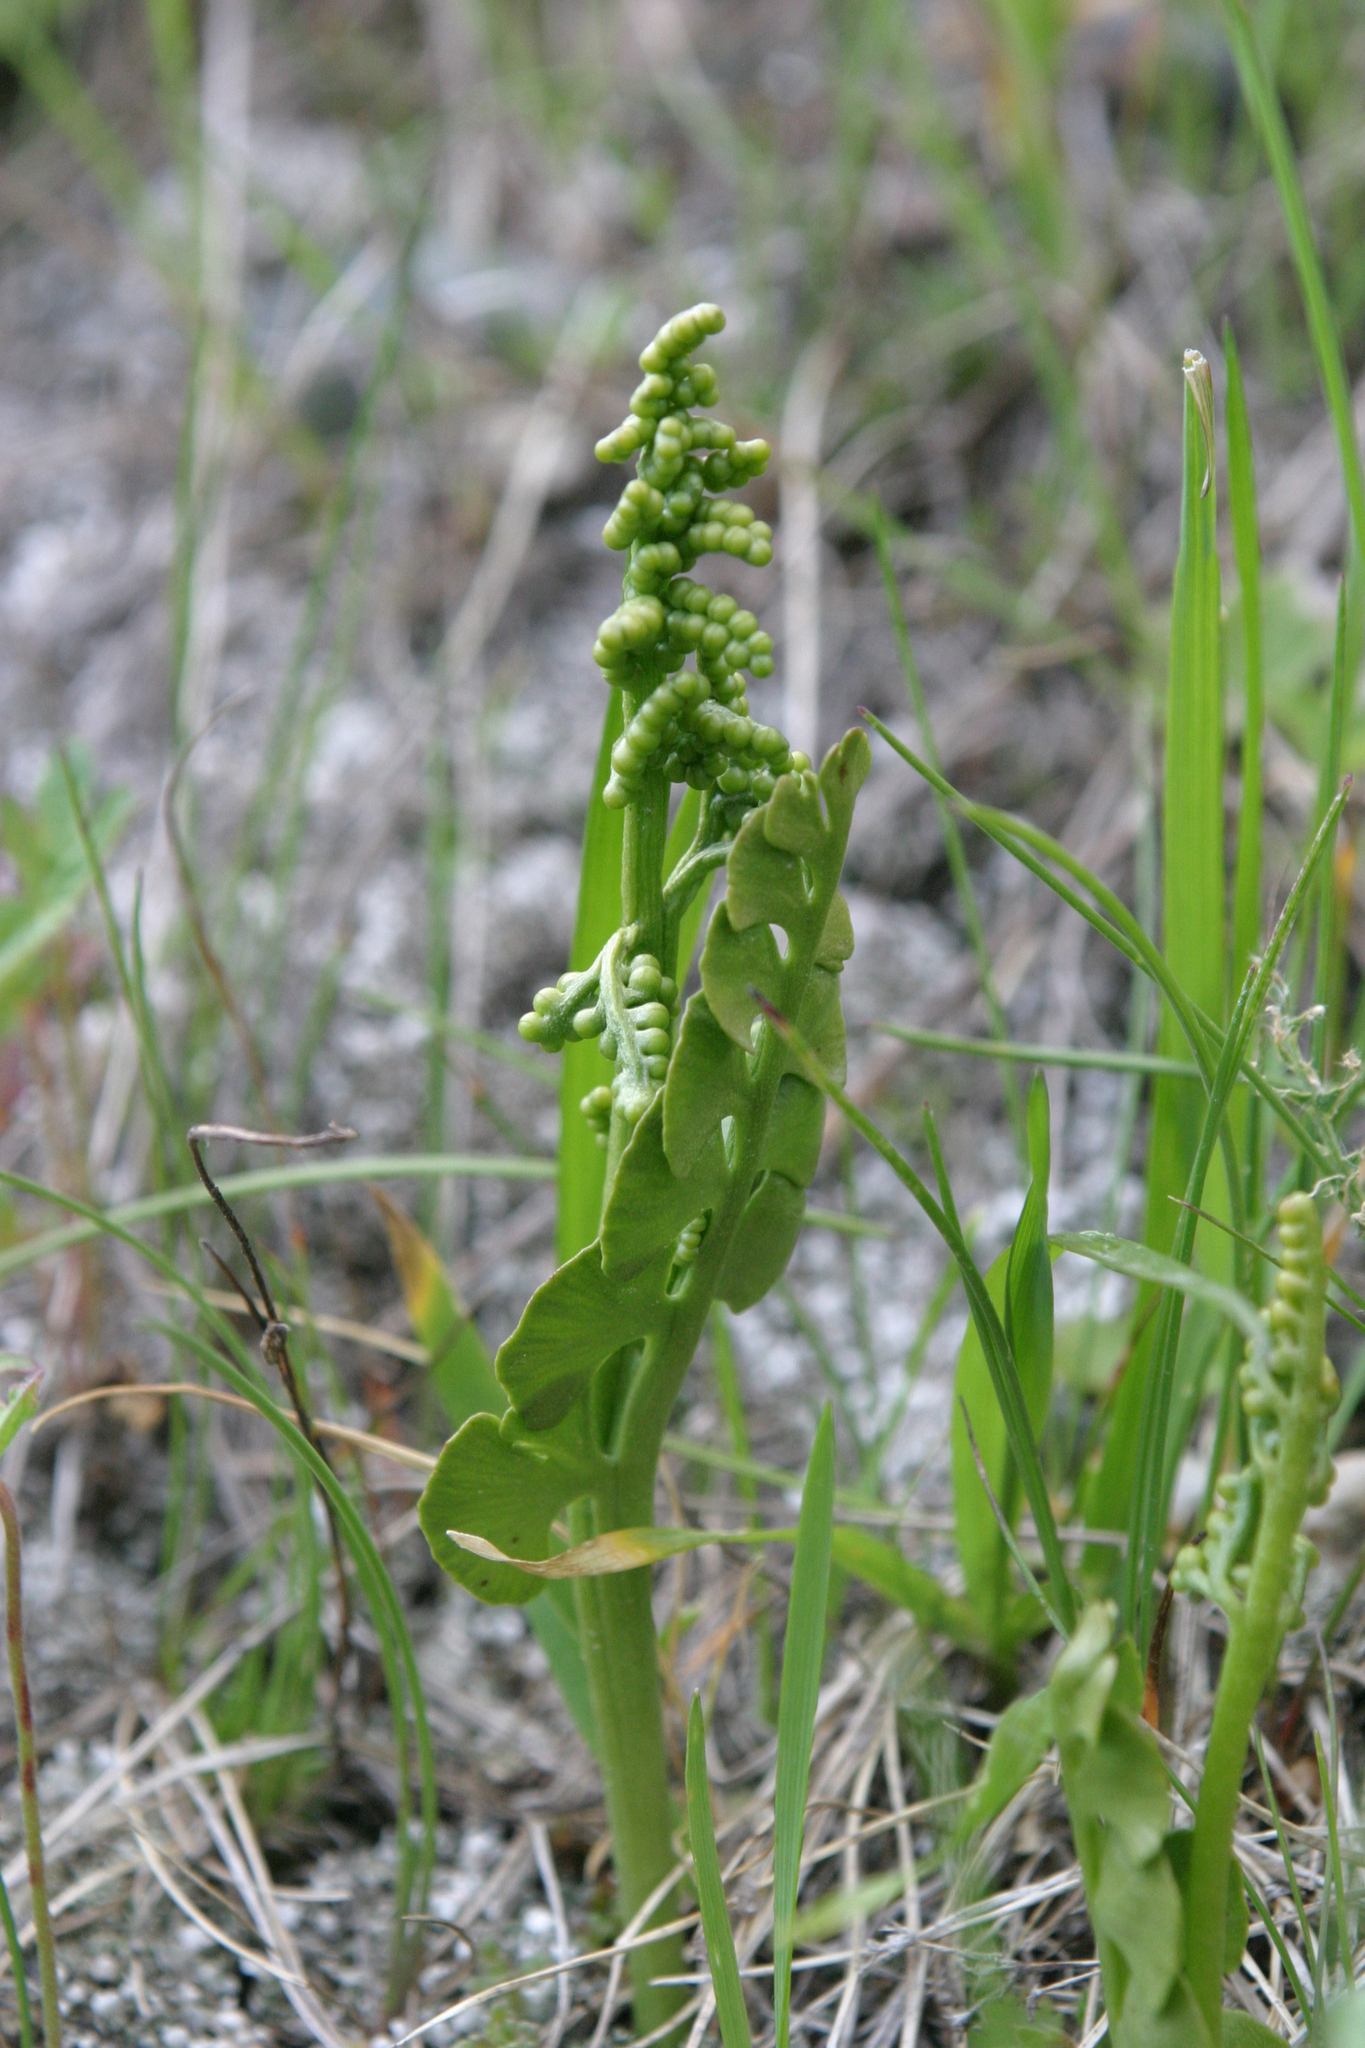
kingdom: Plantae
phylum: Tracheophyta
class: Polypodiopsida
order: Ophioglossales
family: Ophioglossaceae
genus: Botrychium
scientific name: Botrychium lunaria
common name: Moonwort
